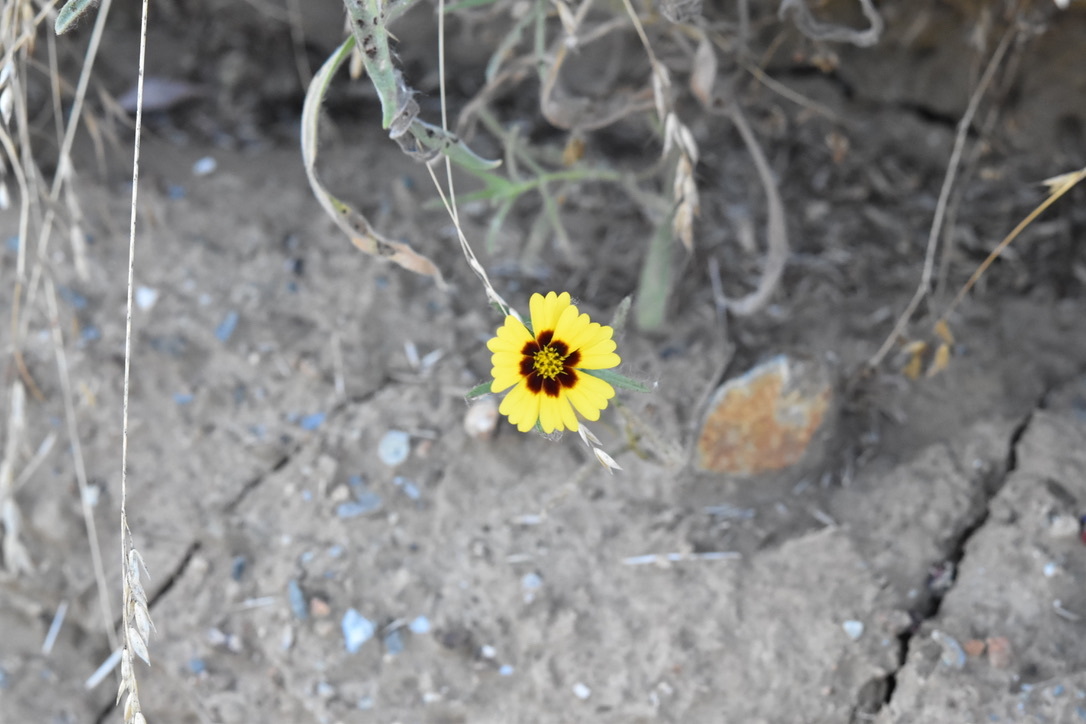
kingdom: Plantae
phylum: Tracheophyta
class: Magnoliopsida
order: Asterales
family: Asteraceae
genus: Madia
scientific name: Madia elegans
